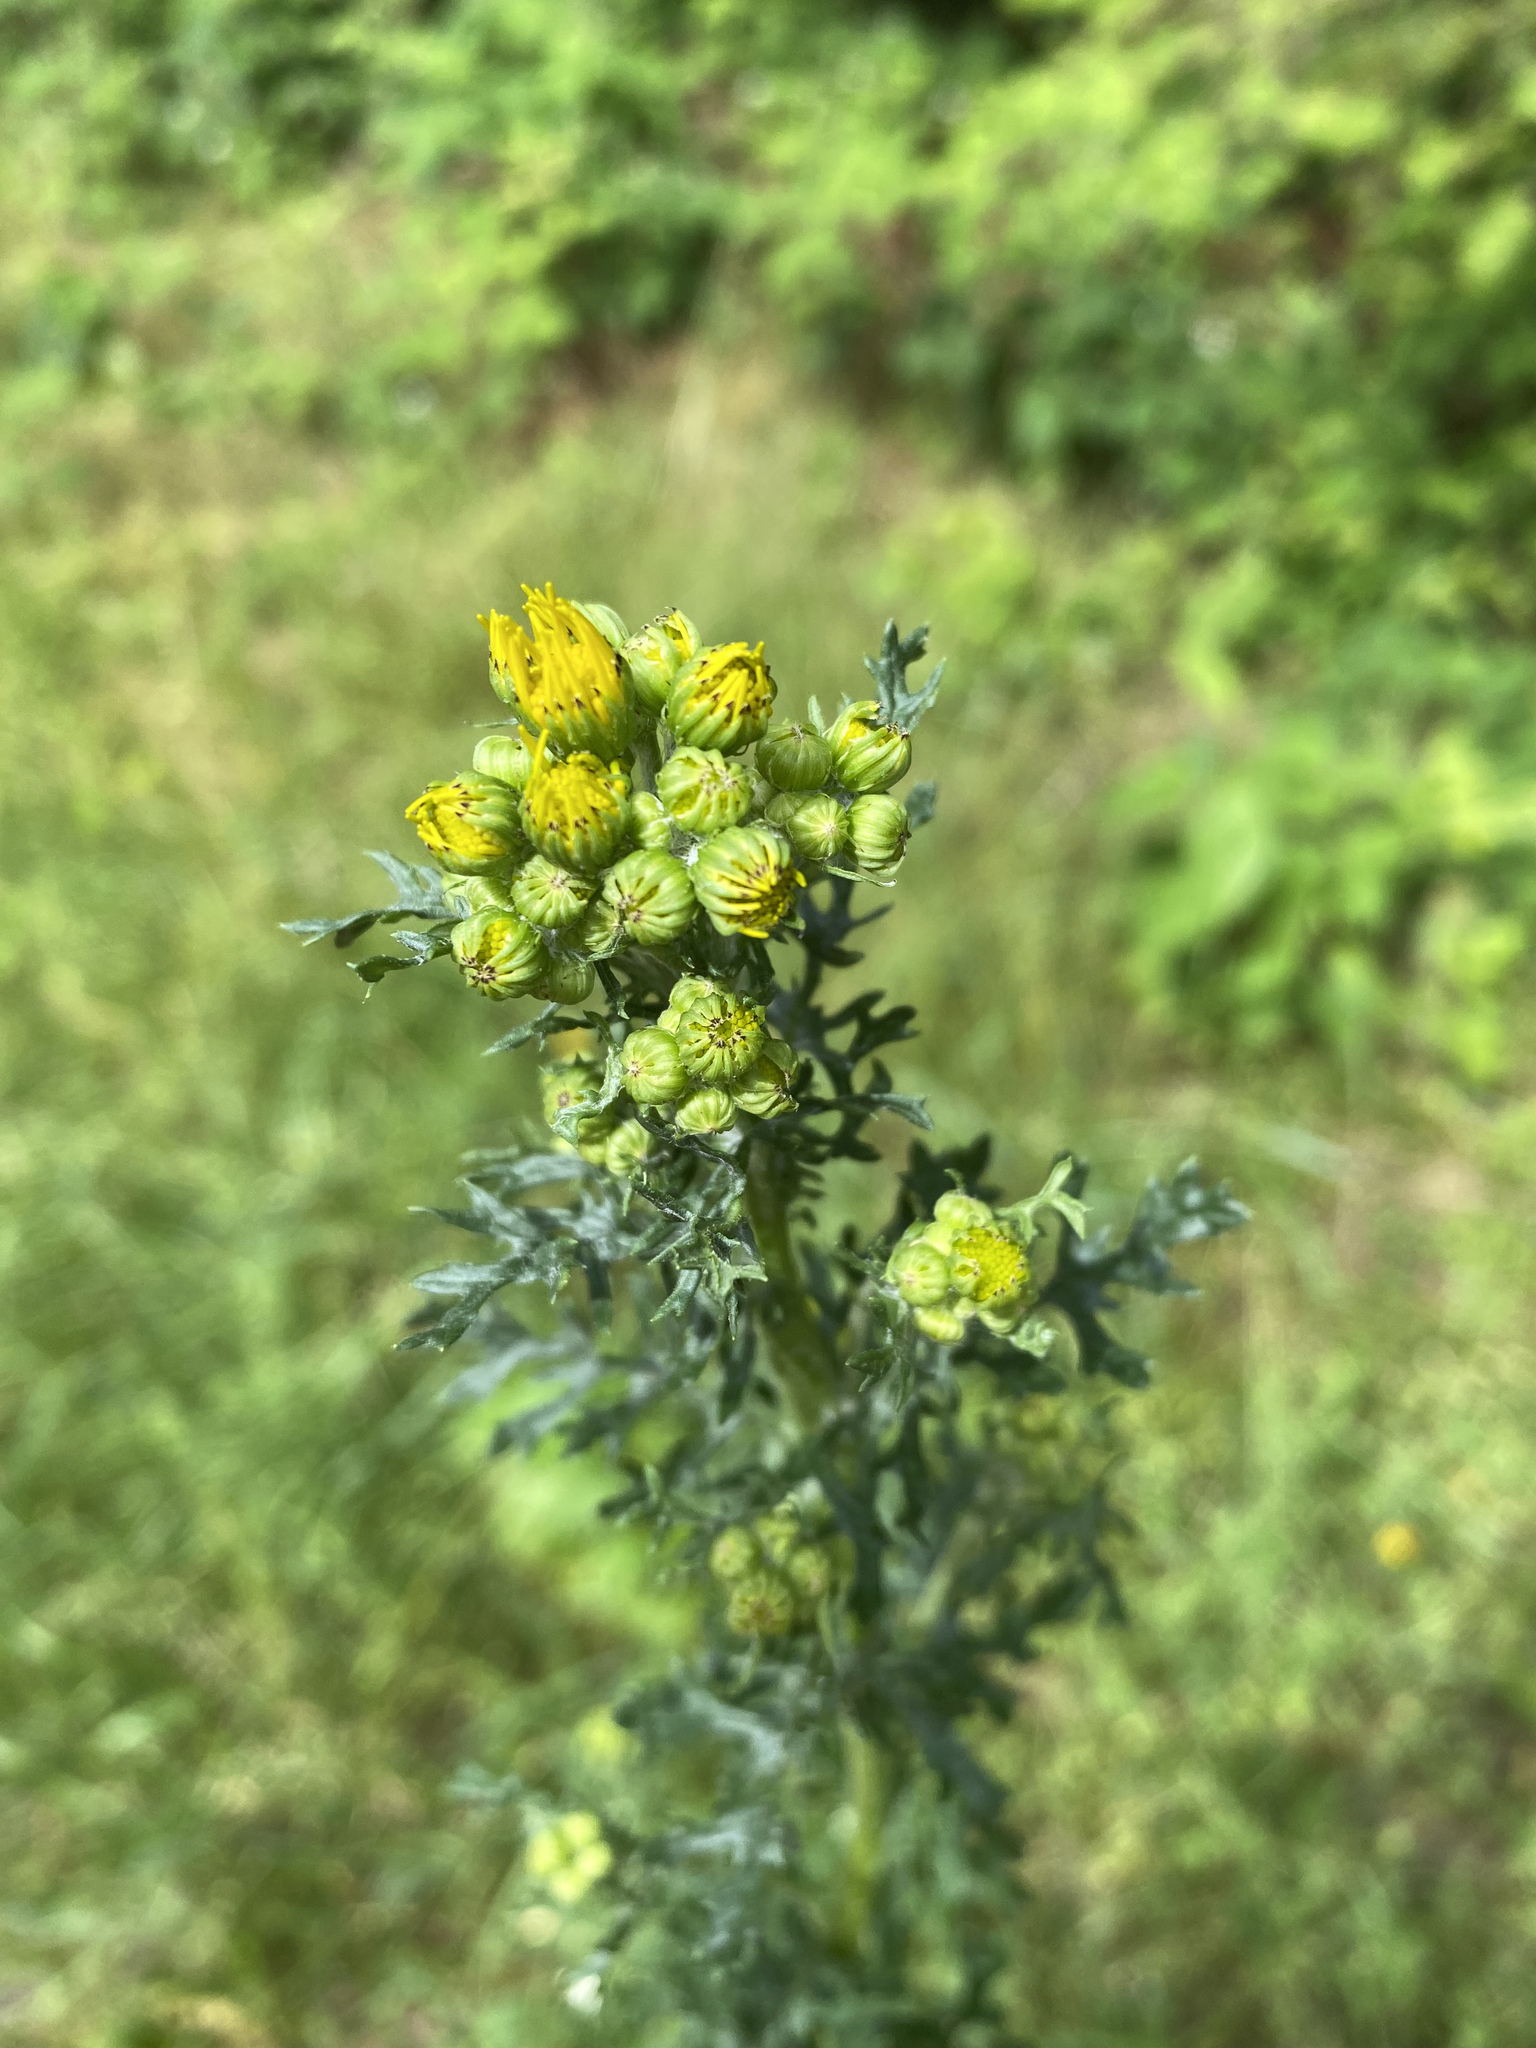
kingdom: Plantae
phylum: Tracheophyta
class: Magnoliopsida
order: Asterales
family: Asteraceae
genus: Jacobaea
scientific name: Jacobaea vulgaris
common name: Stinking willie
